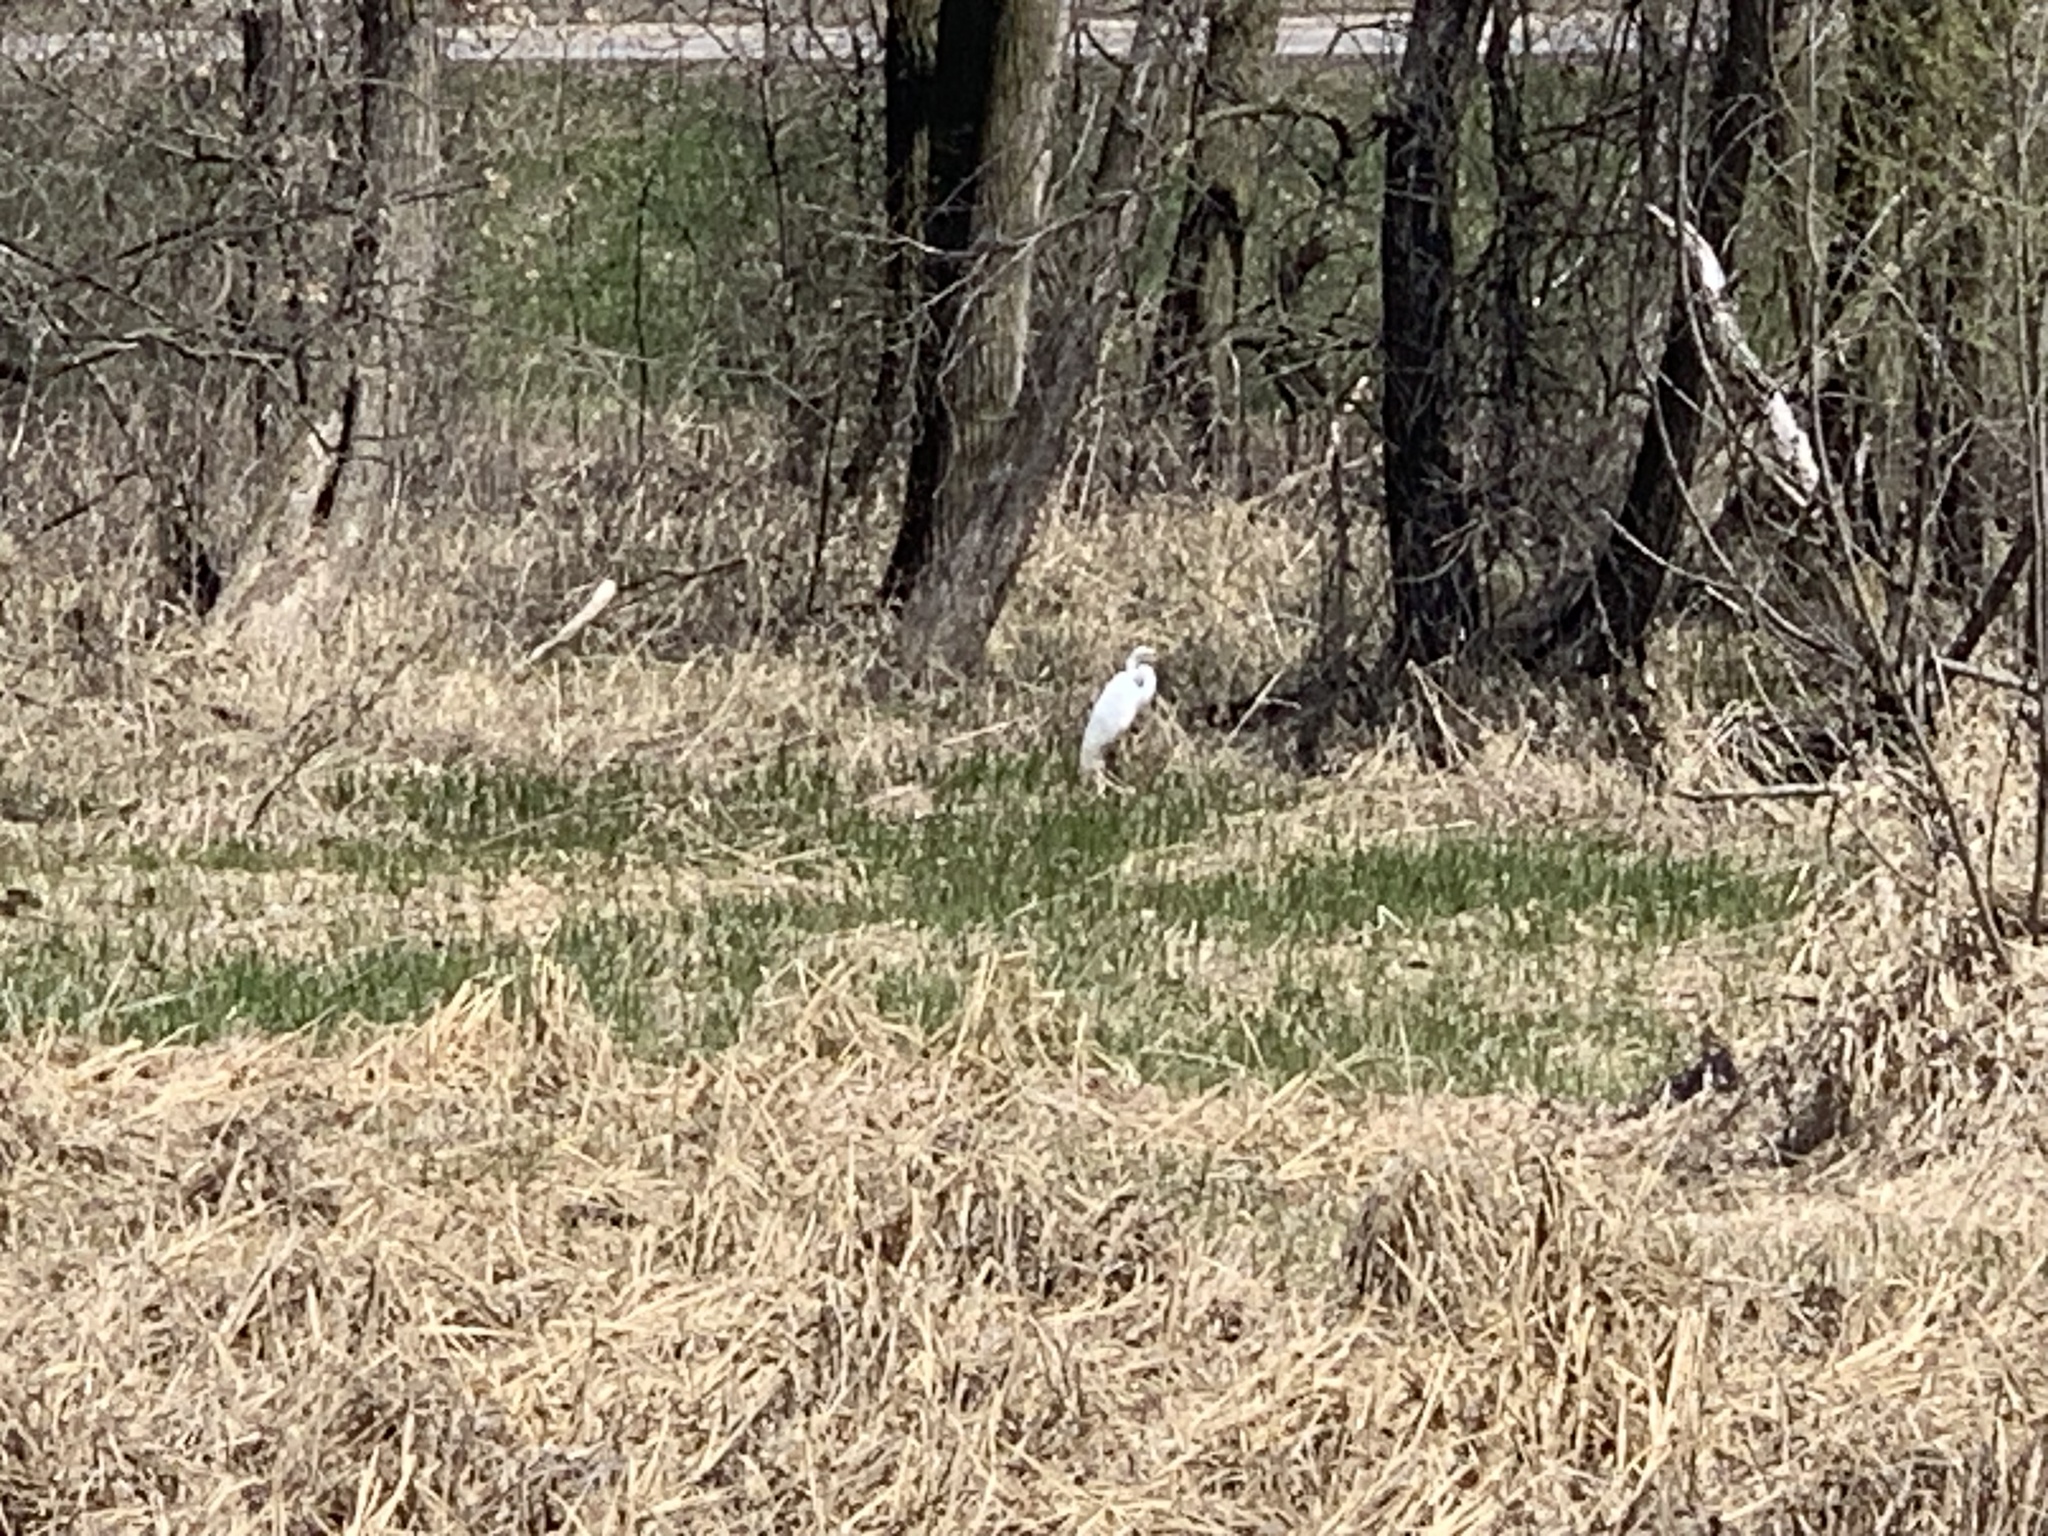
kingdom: Animalia
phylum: Chordata
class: Aves
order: Pelecaniformes
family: Ardeidae
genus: Ardea
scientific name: Ardea alba
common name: Great egret
